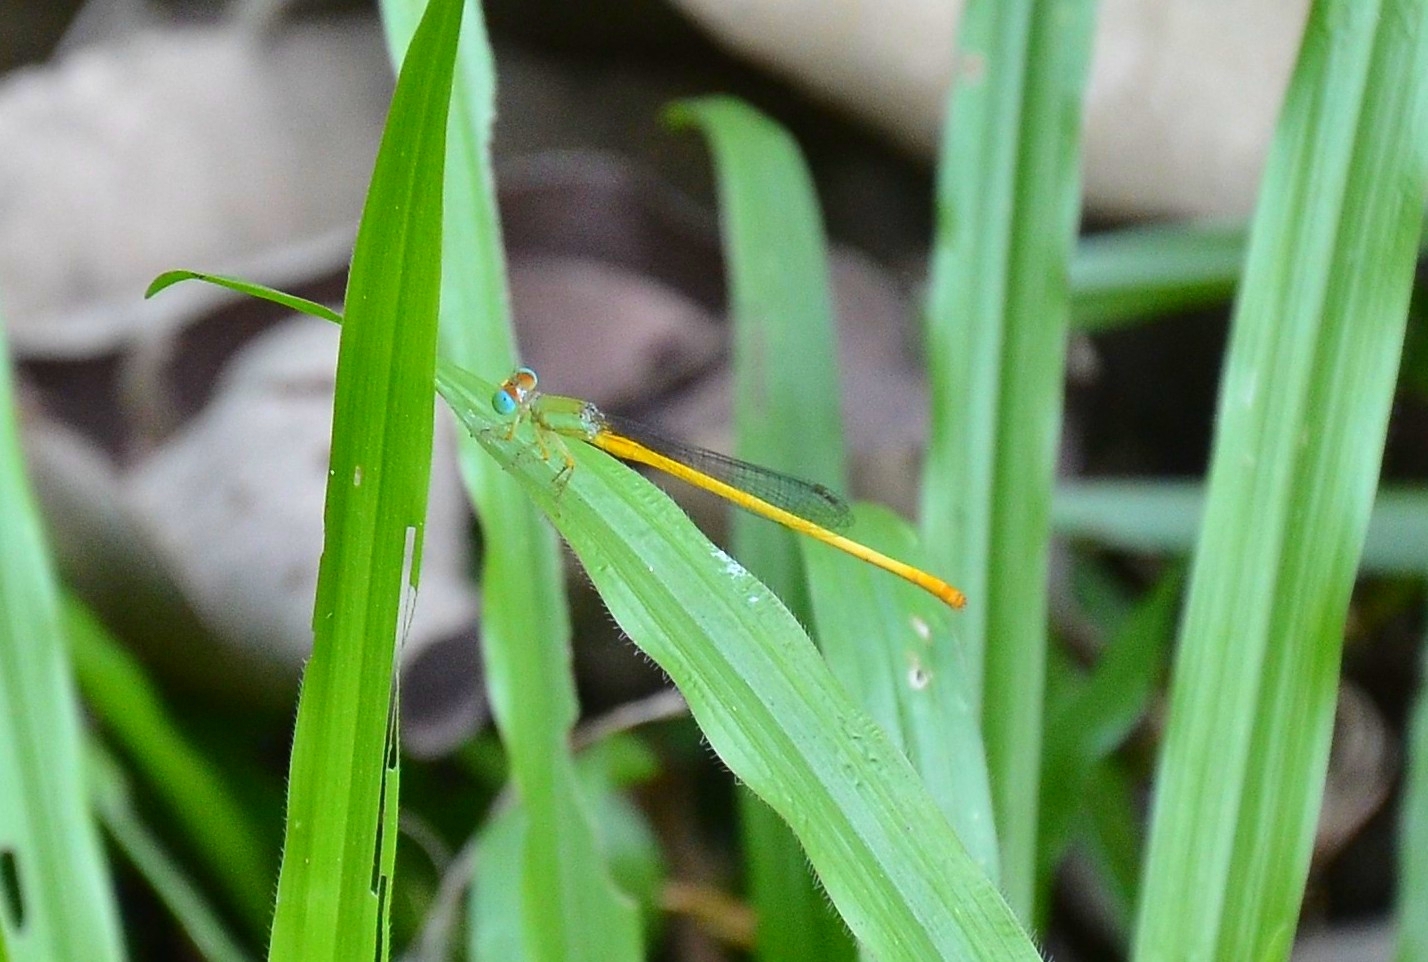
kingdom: Animalia
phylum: Arthropoda
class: Insecta
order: Odonata
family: Coenagrionidae
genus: Ceriagrion
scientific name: Ceriagrion coromandelianum
